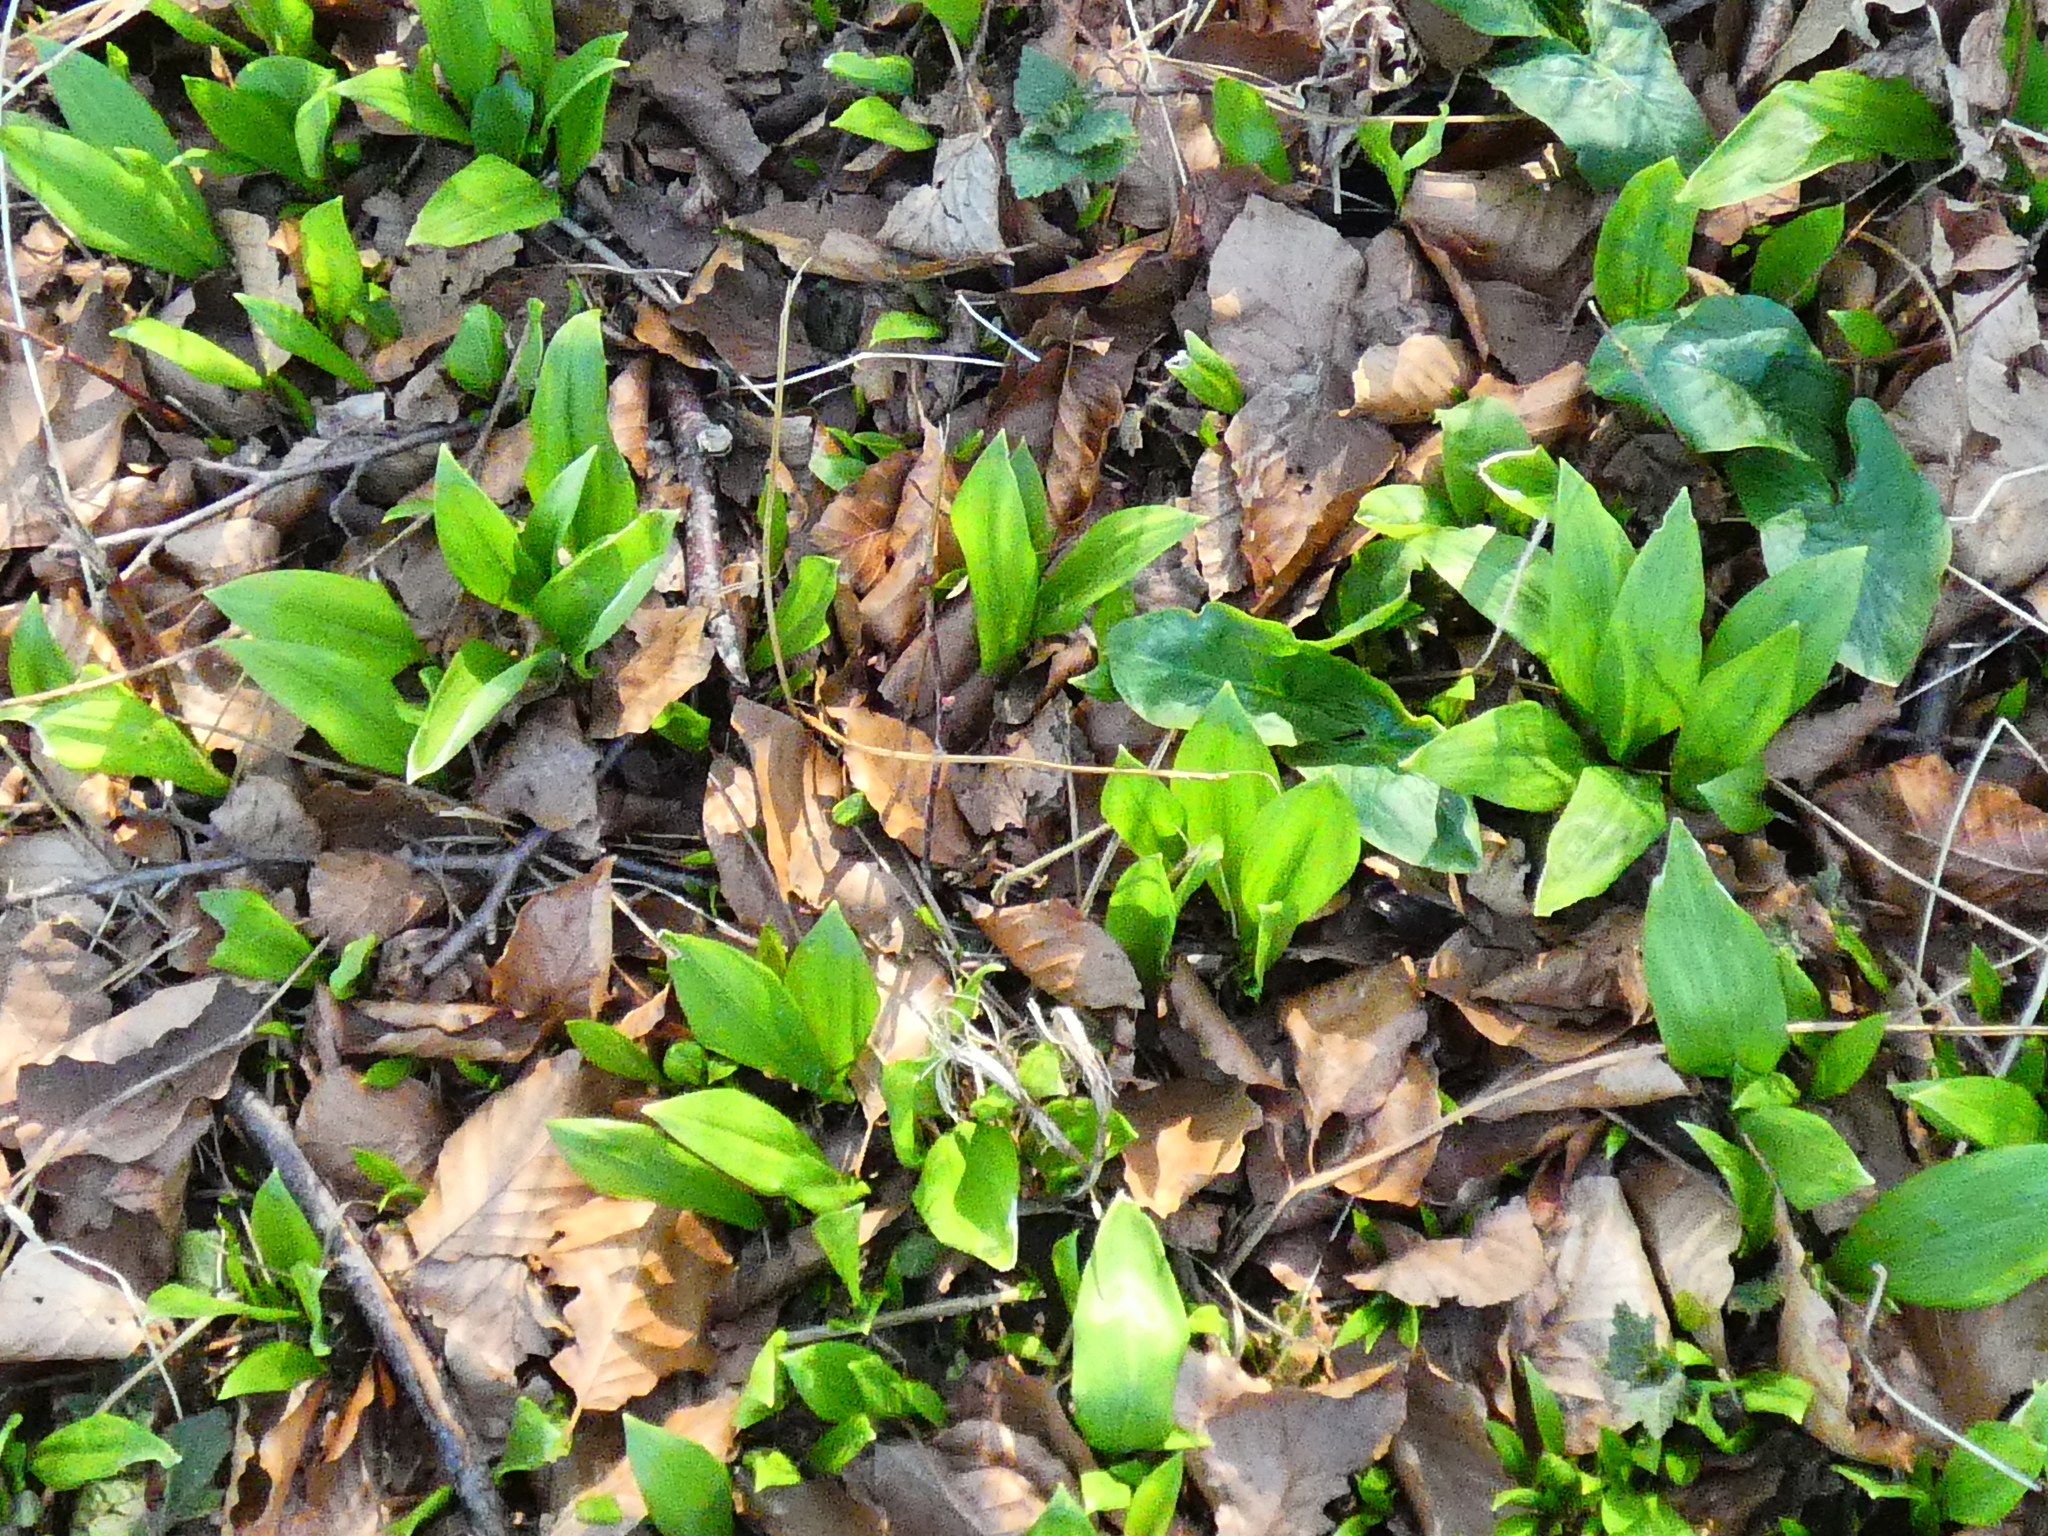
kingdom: Plantae
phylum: Tracheophyta
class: Liliopsida
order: Asparagales
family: Amaryllidaceae
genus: Allium
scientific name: Allium ursinum
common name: Ramsons
